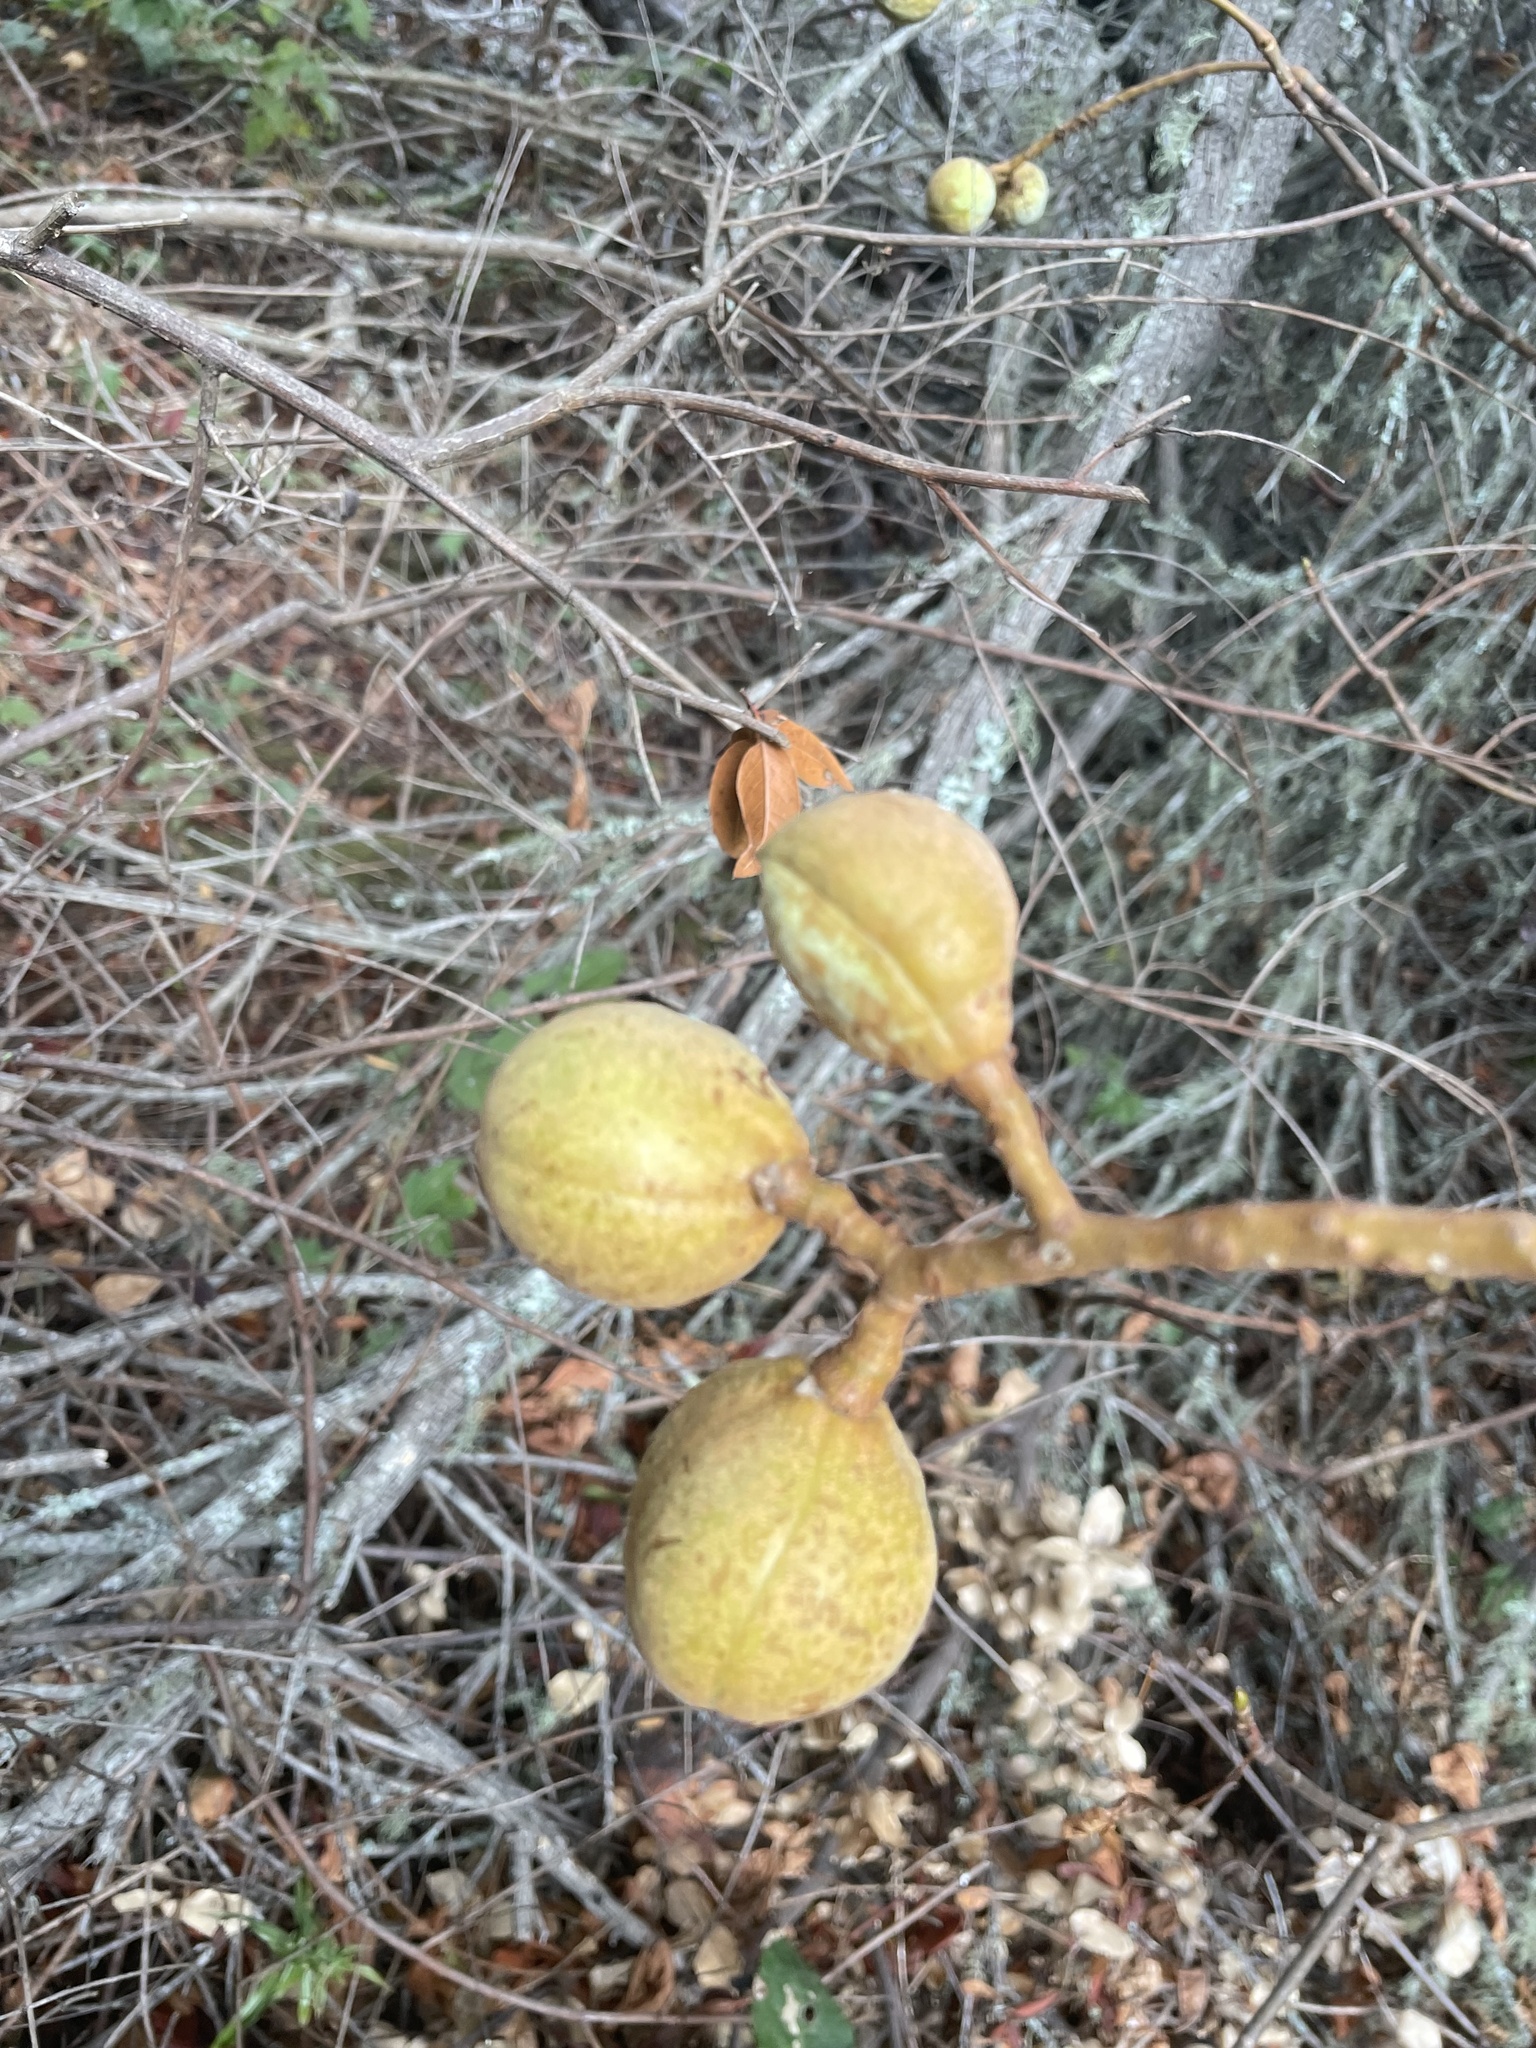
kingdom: Plantae
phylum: Tracheophyta
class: Magnoliopsida
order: Sapindales
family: Sapindaceae
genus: Aesculus
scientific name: Aesculus californica
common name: California buckeye
